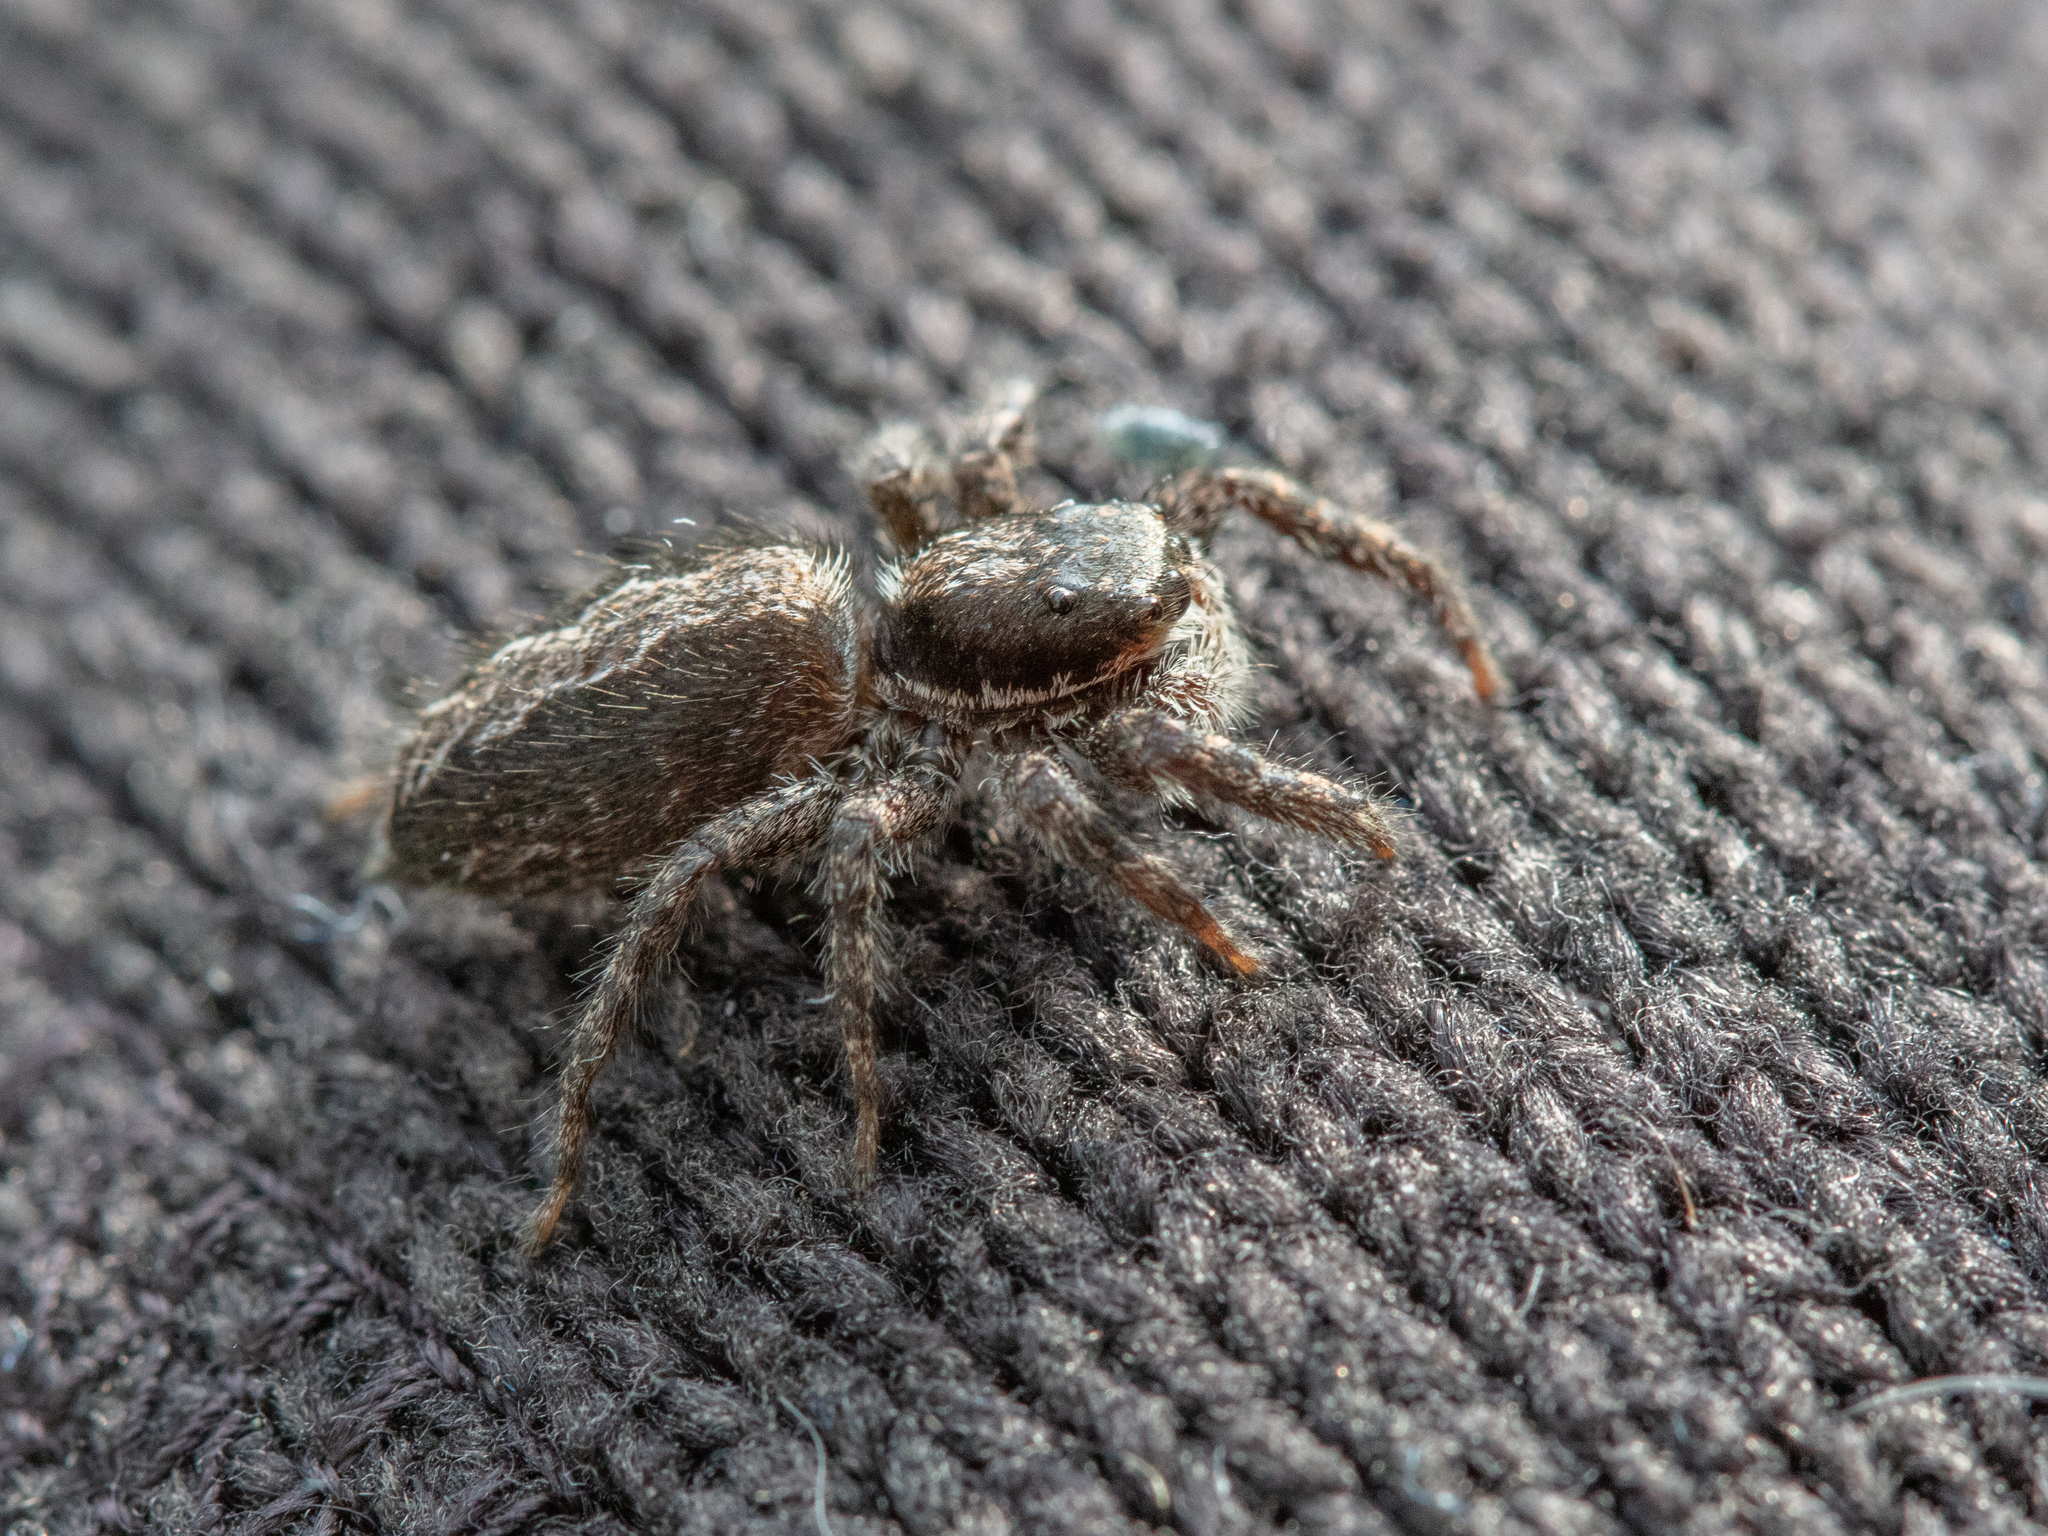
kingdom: Animalia
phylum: Arthropoda
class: Arachnida
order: Araneae
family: Salticidae
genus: Platycryptus
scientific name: Platycryptus californicus
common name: Jumping spiders
